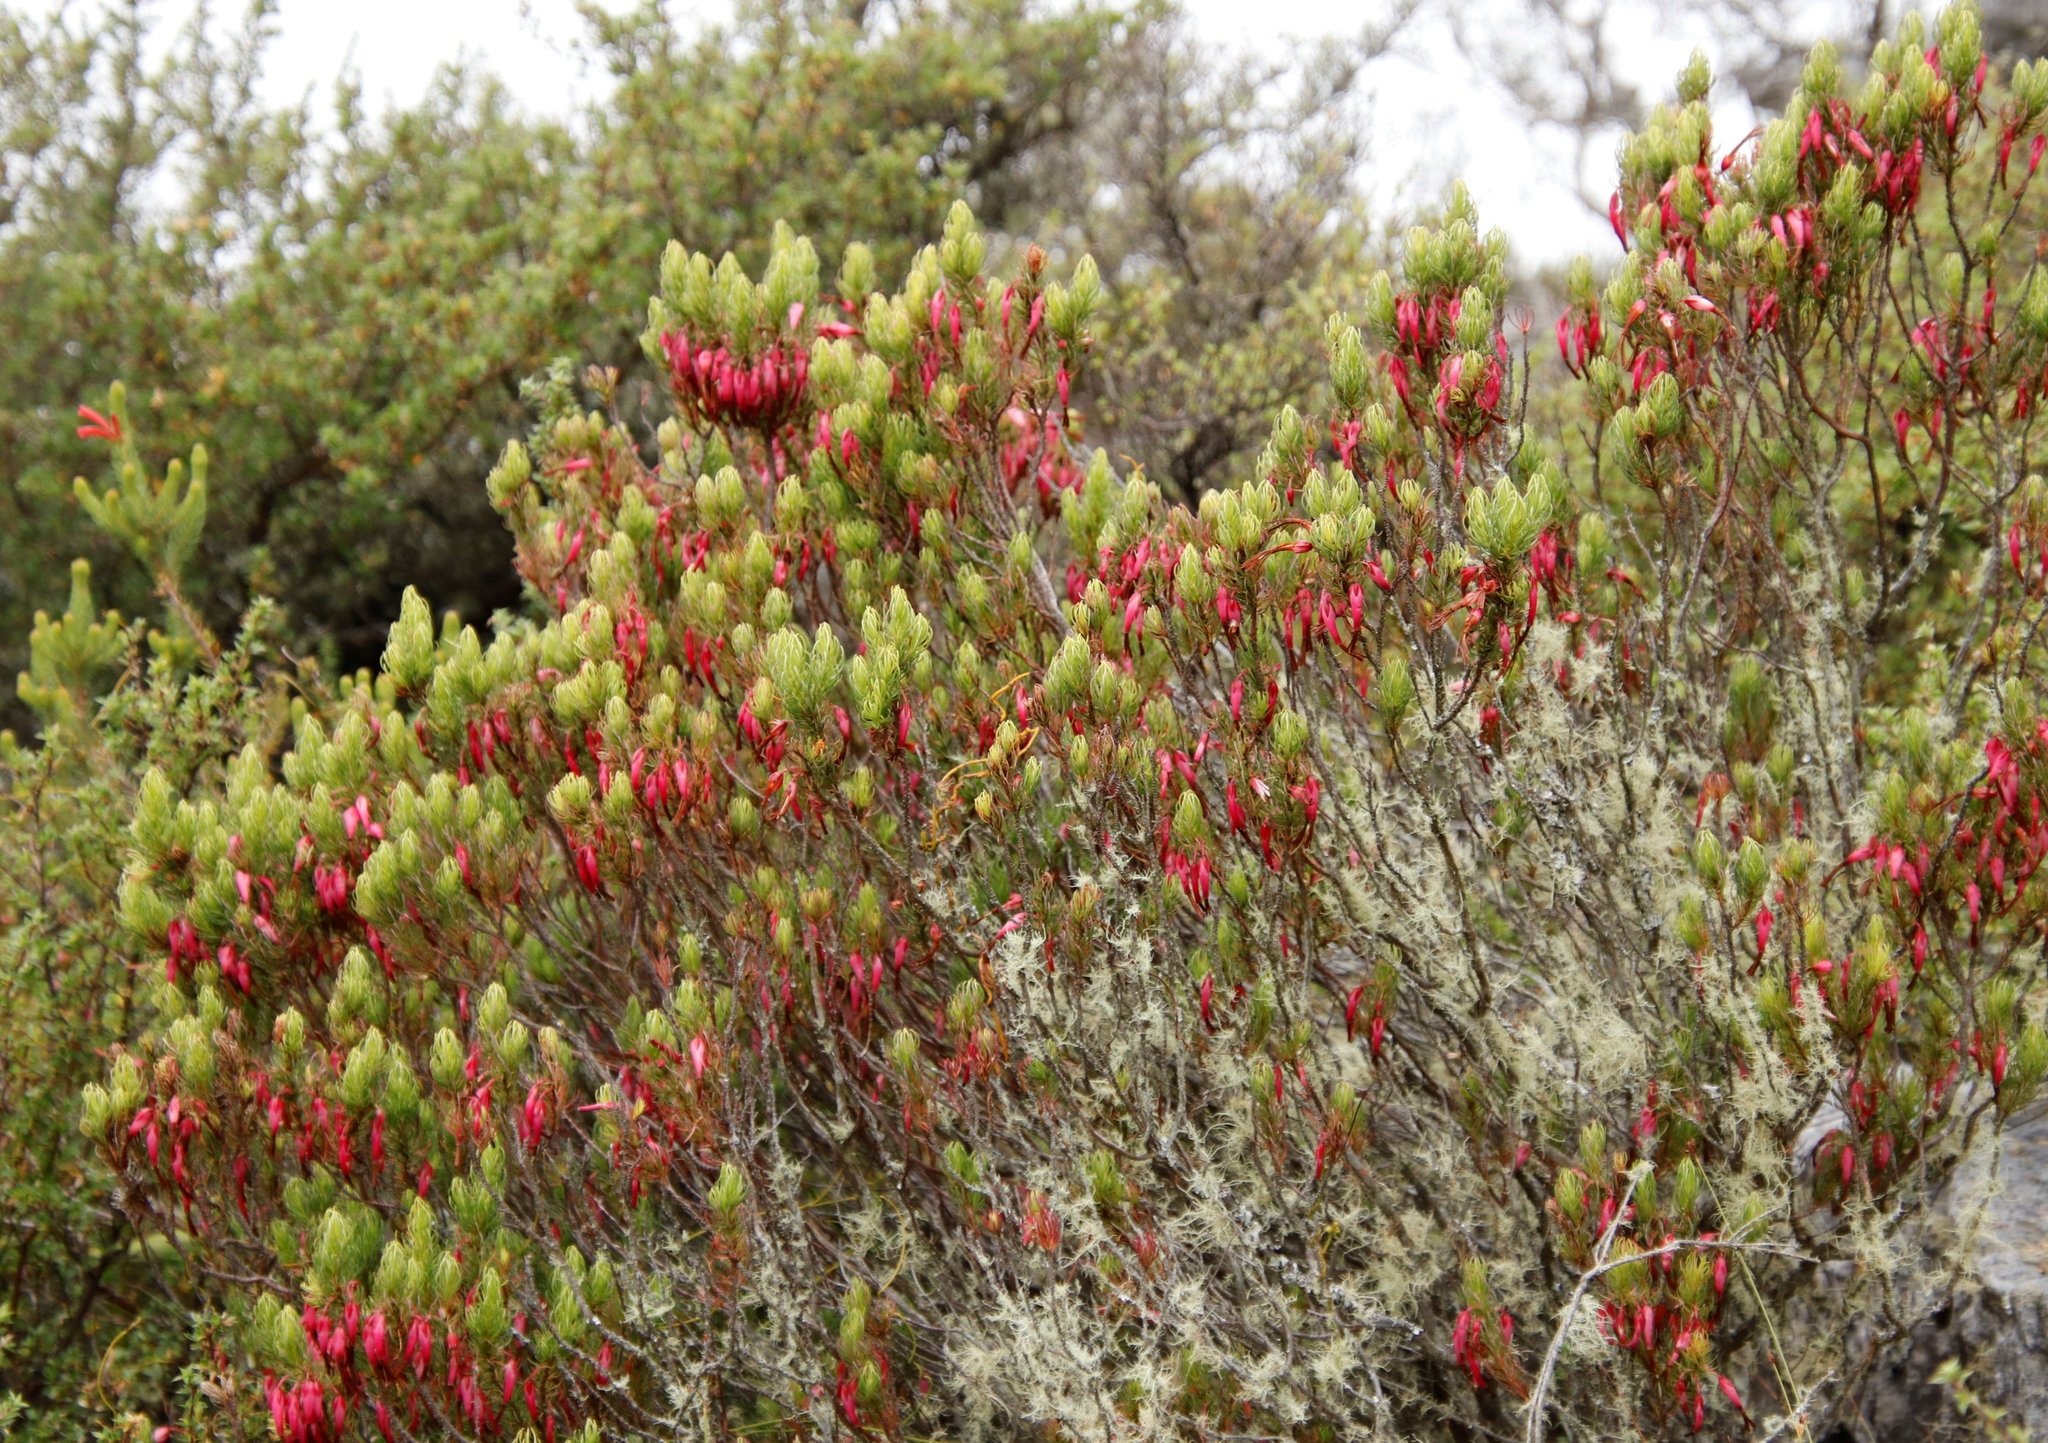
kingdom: Plantae
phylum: Tracheophyta
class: Magnoliopsida
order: Ericales
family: Ericaceae
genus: Erica
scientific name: Erica plukenetii
